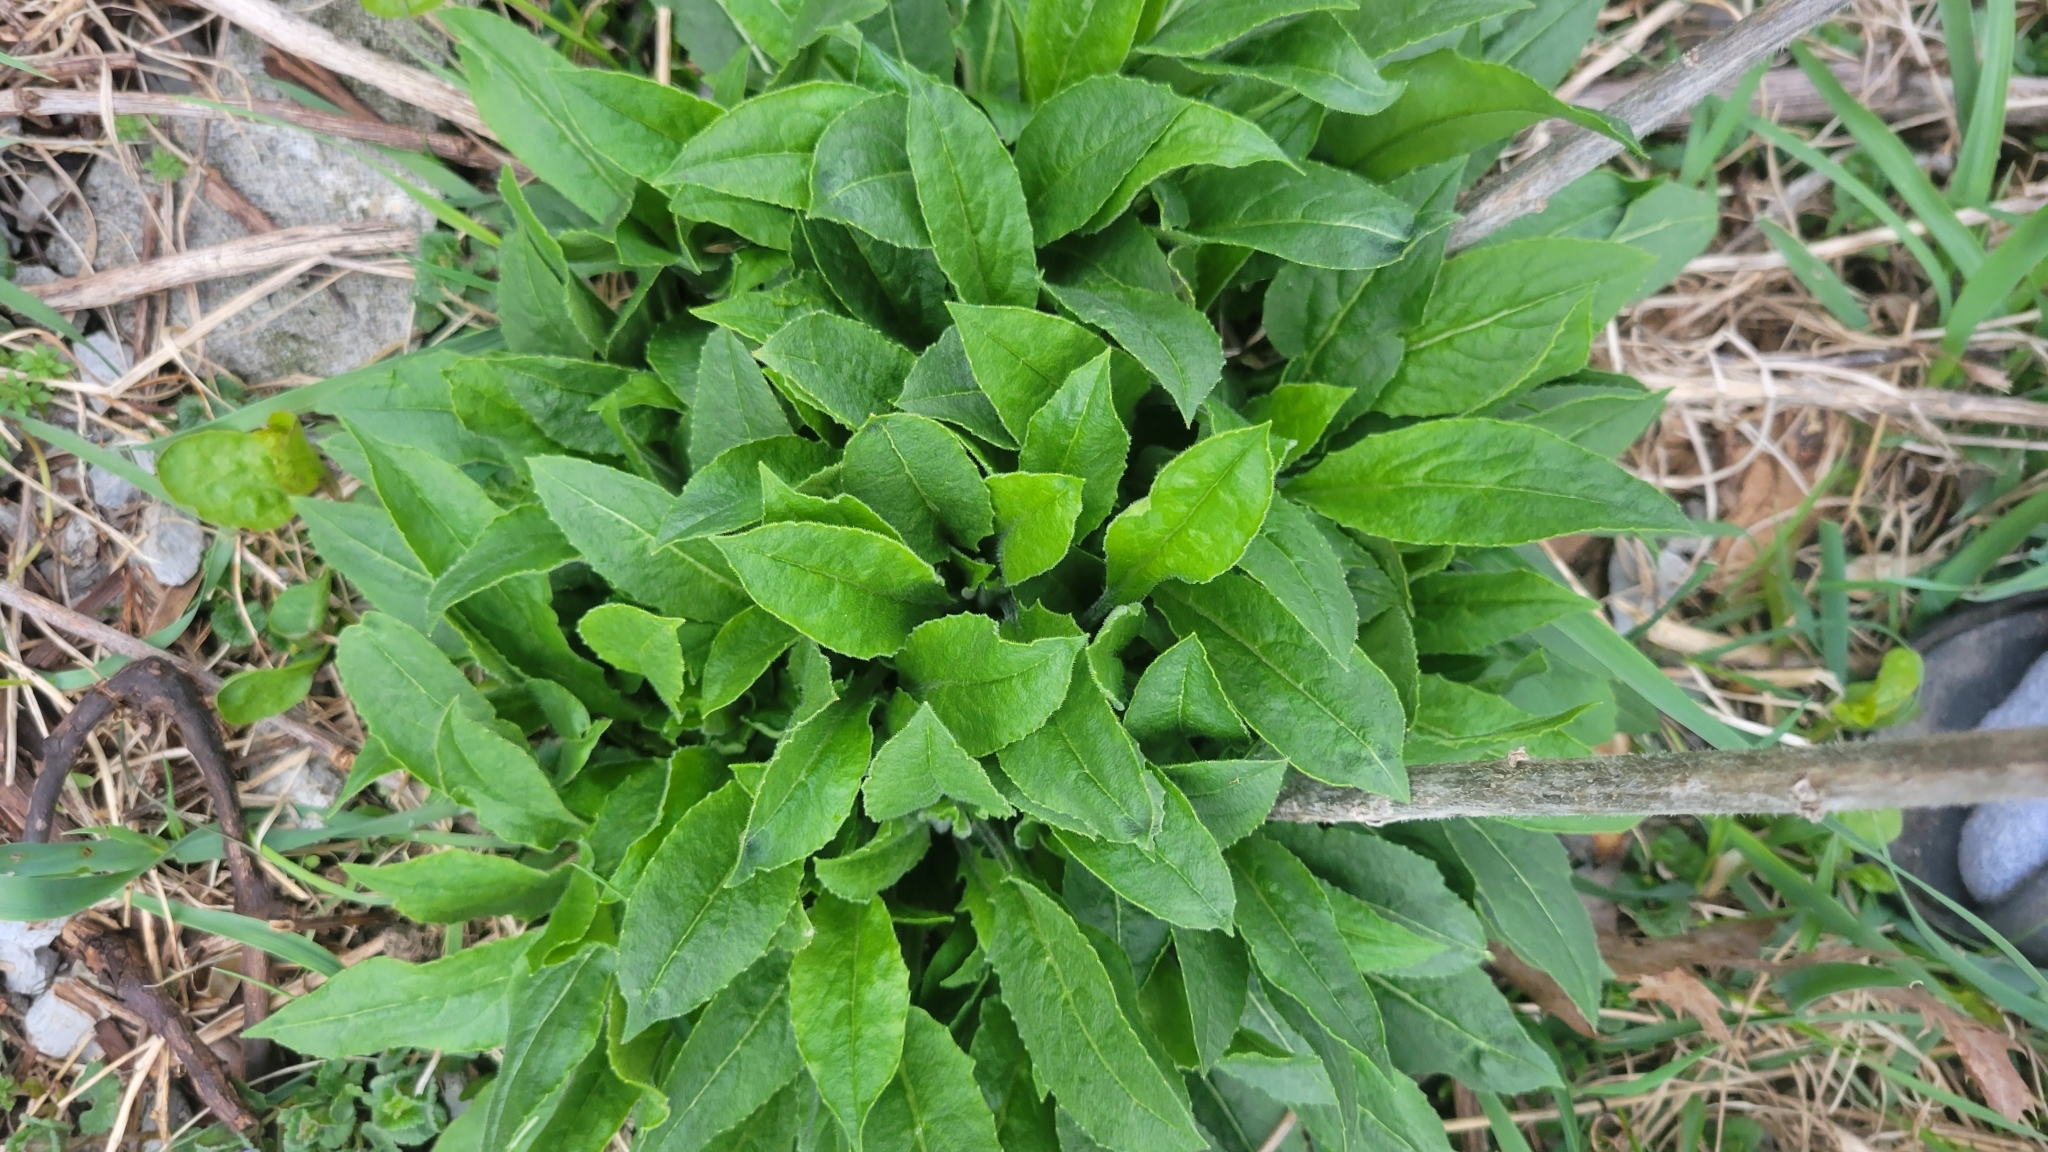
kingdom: Plantae
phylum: Tracheophyta
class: Magnoliopsida
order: Brassicales
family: Brassicaceae
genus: Hesperis
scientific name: Hesperis matronalis
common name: Dame's-violet
